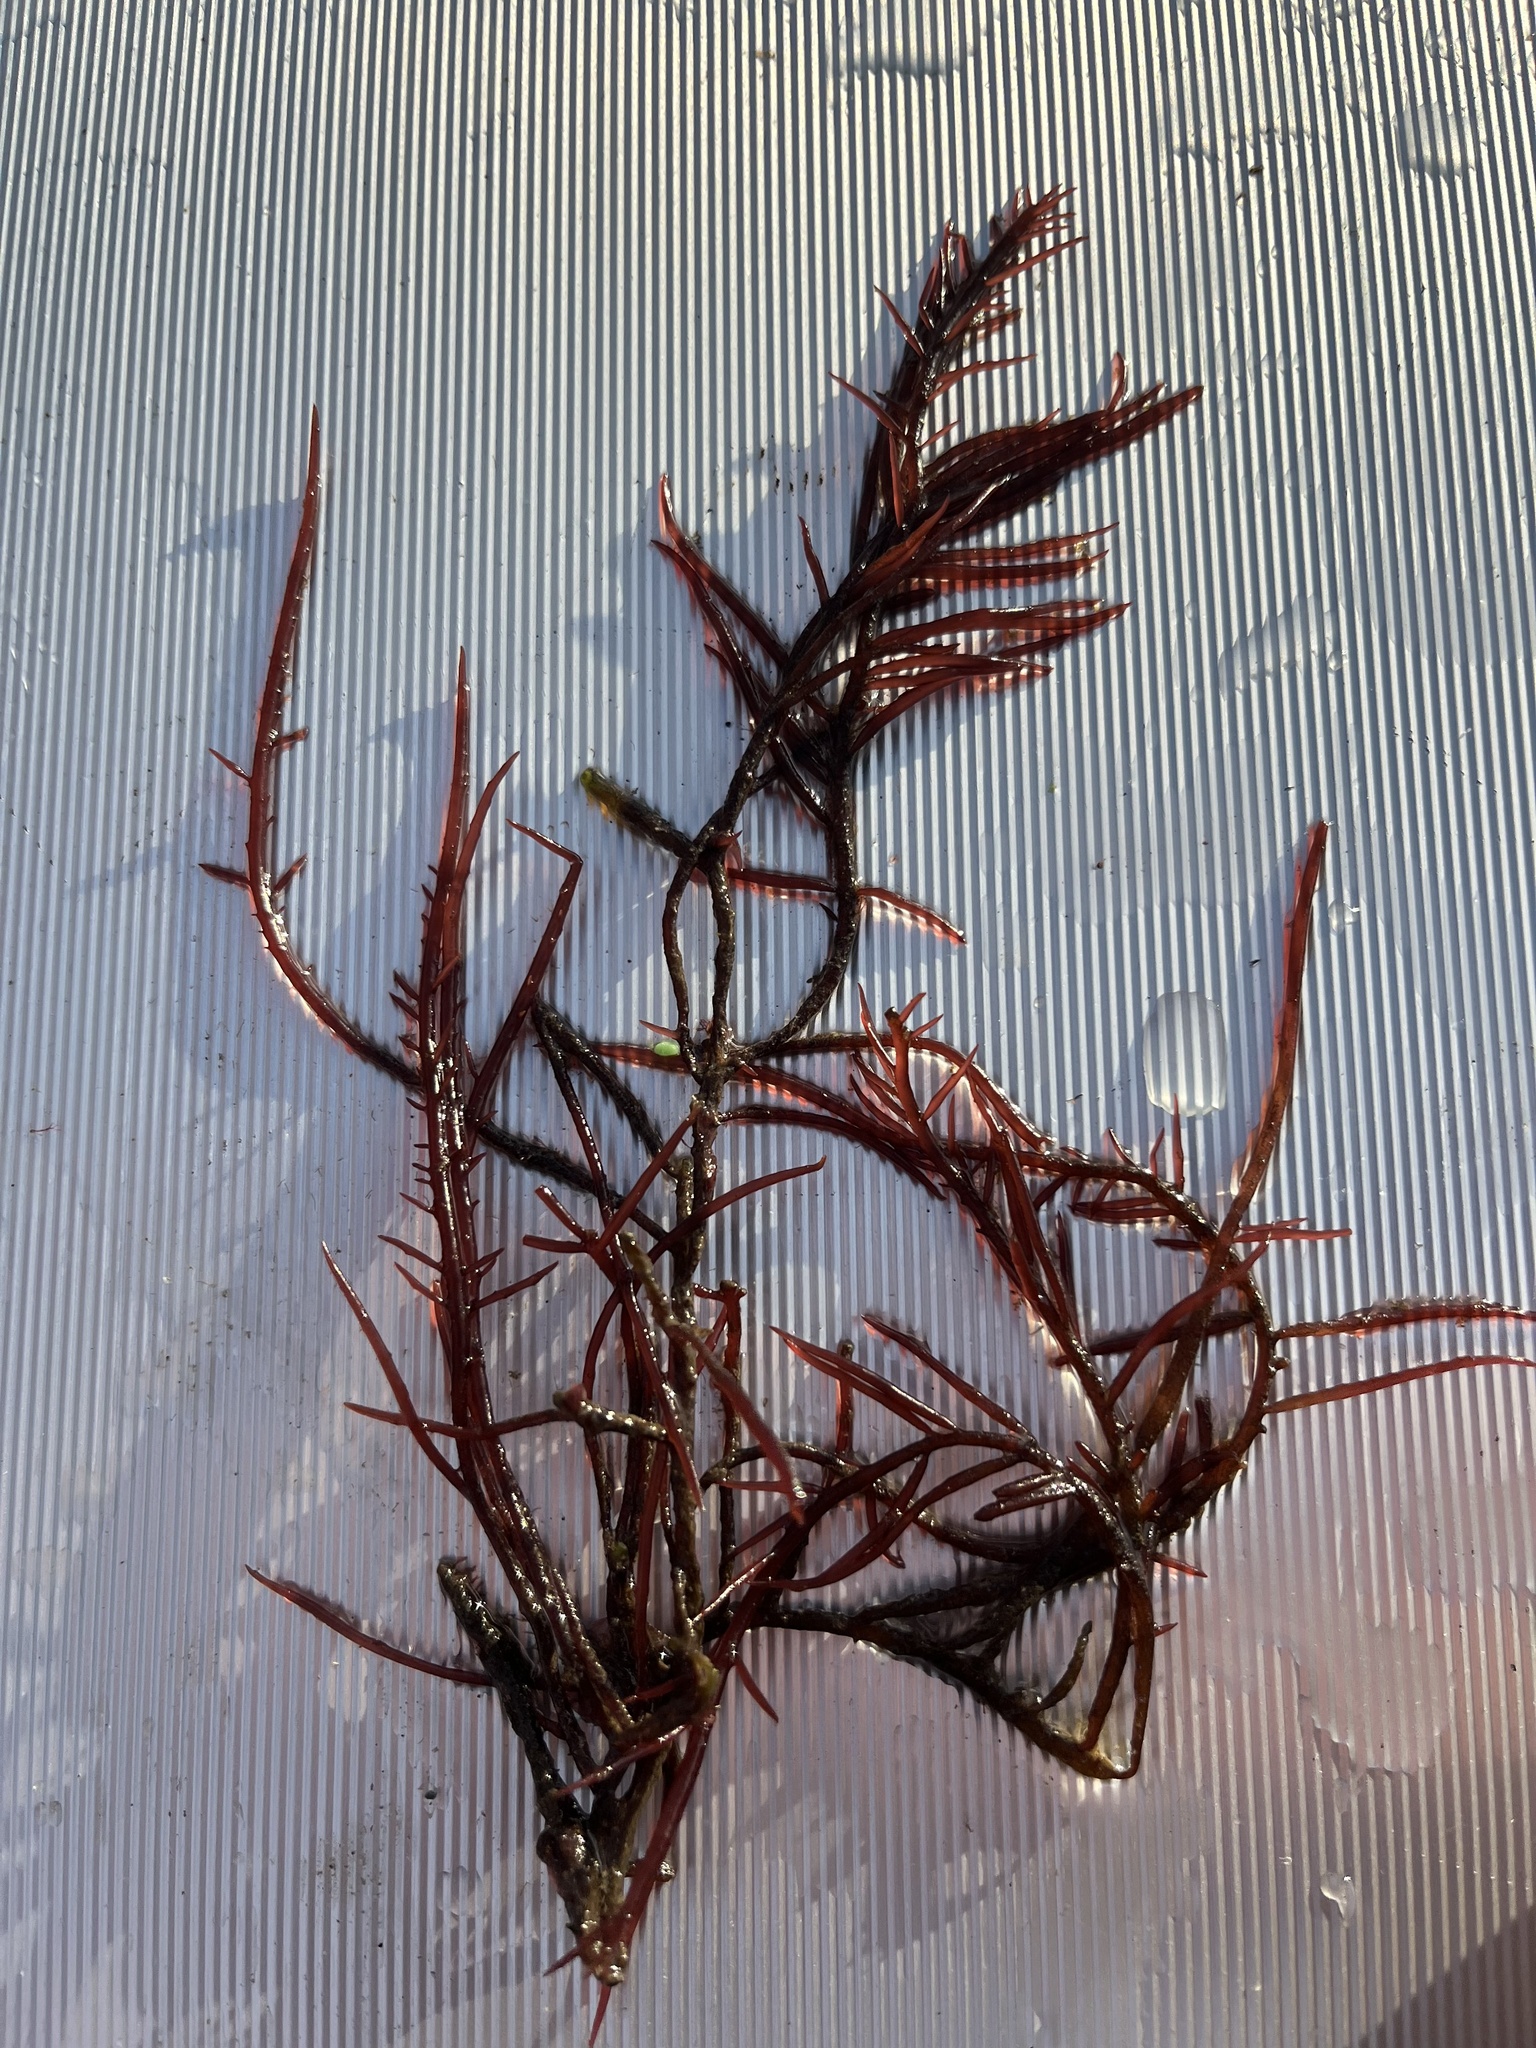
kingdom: Plantae
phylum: Rhodophyta
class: Florideophyceae
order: Gigartinales
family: Solieriaceae
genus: Sarcodiotheca
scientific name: Sarcodiotheca gaudichaudii
